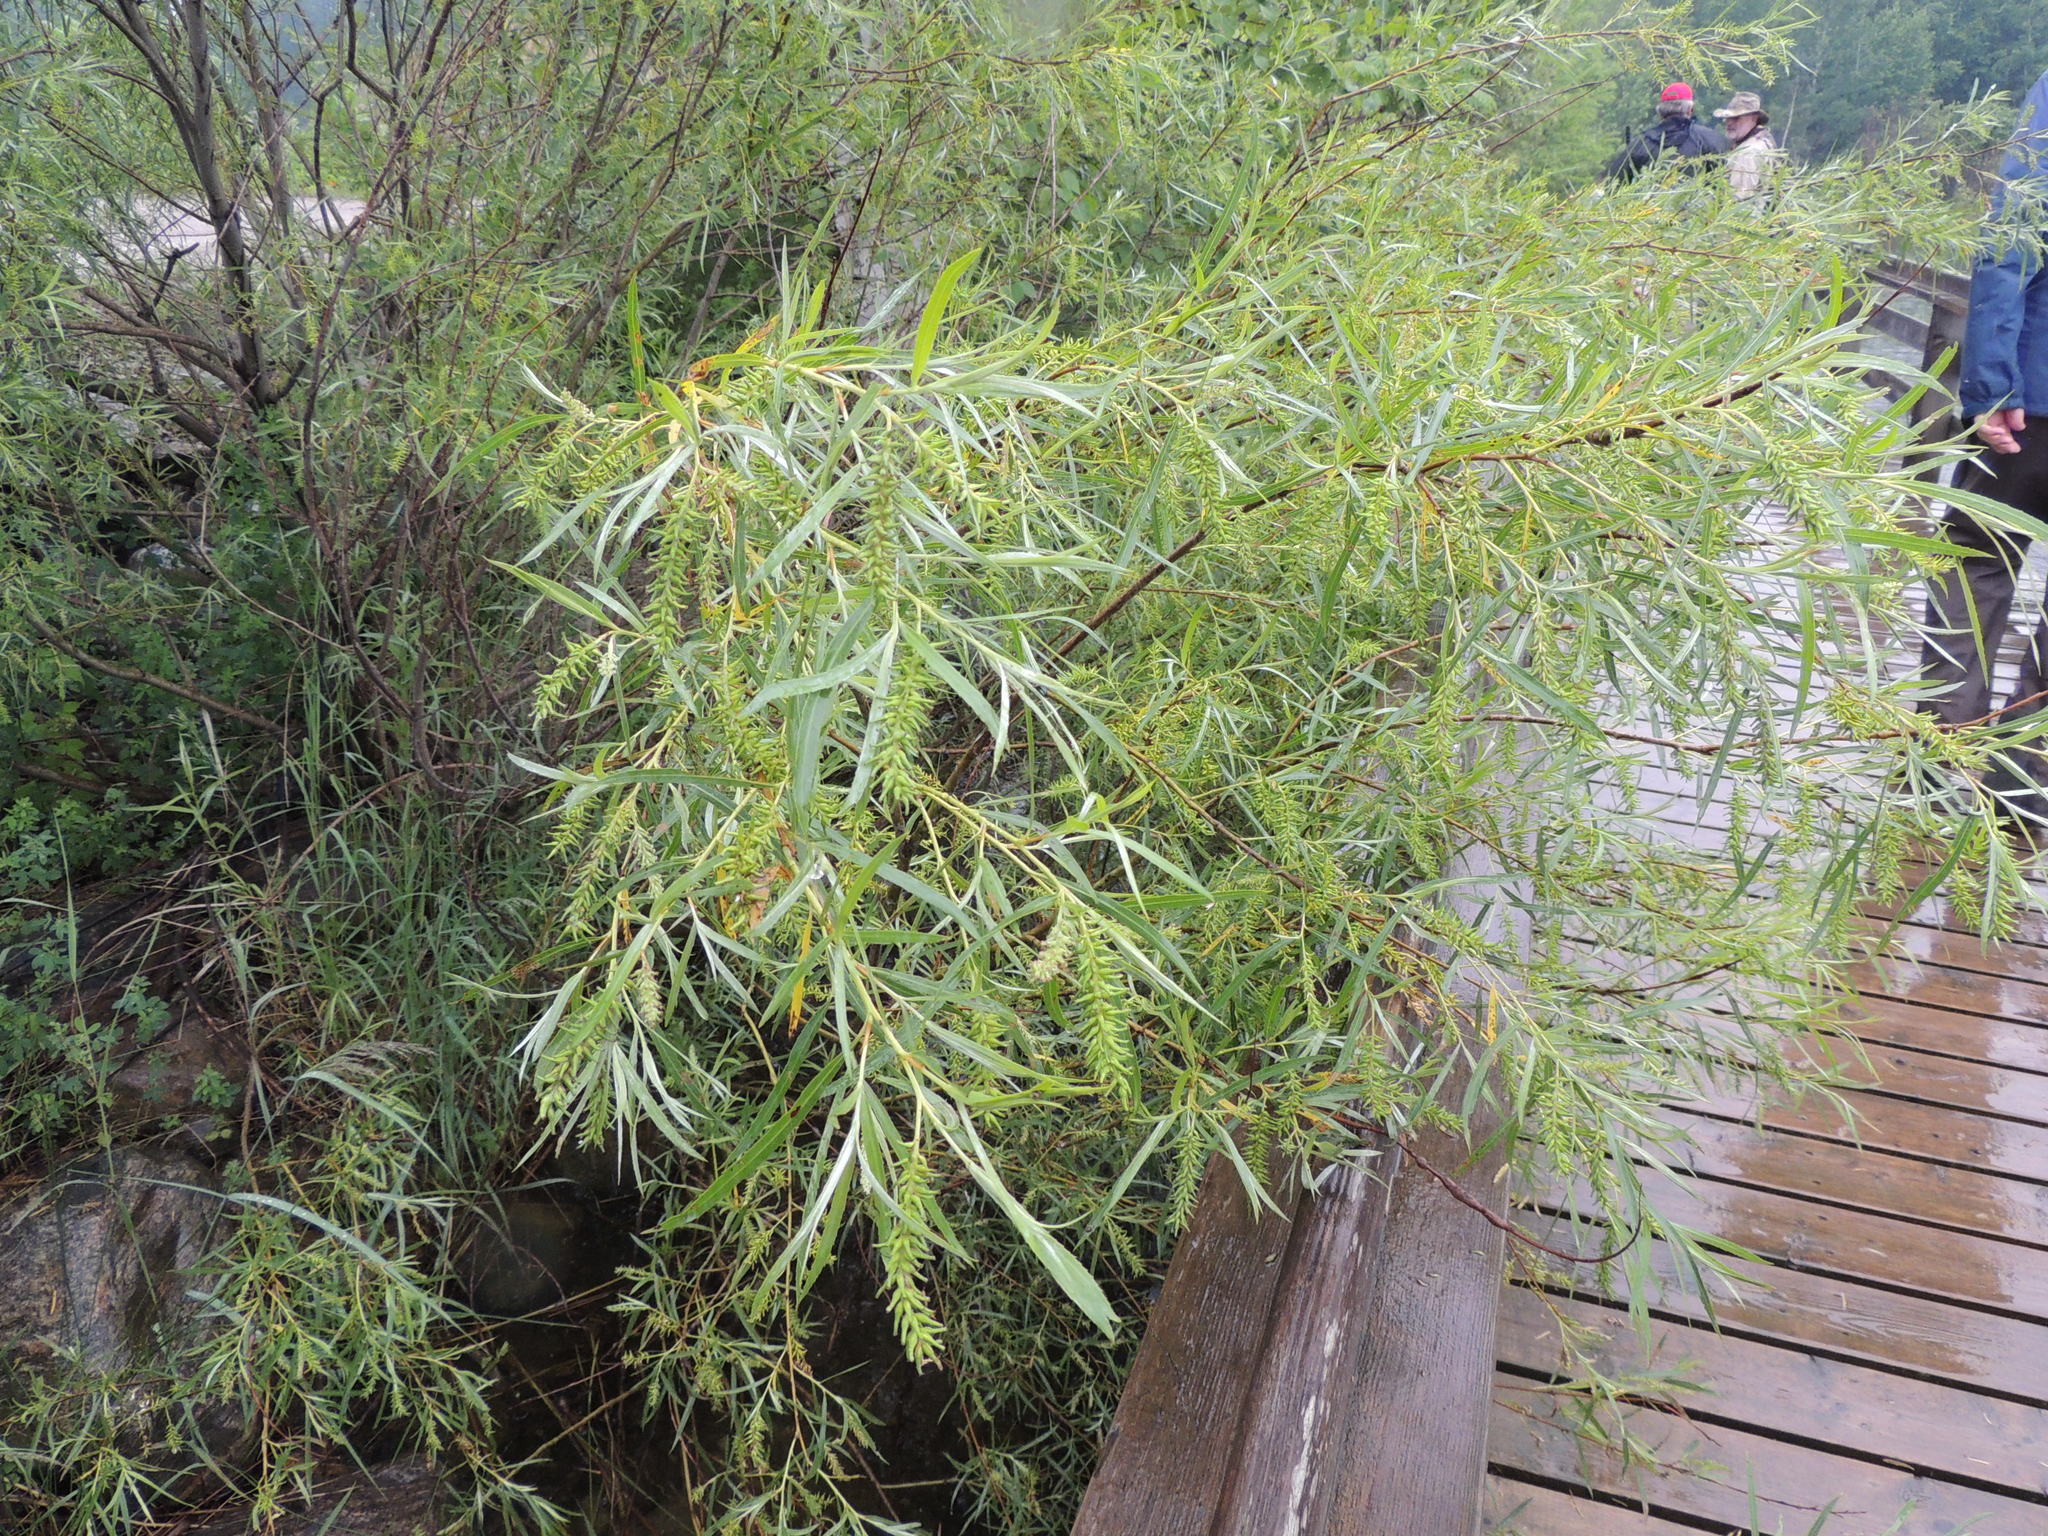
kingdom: Plantae
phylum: Tracheophyta
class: Magnoliopsida
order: Malpighiales
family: Salicaceae
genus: Salix
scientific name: Salix interior
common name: Sandbar willow
